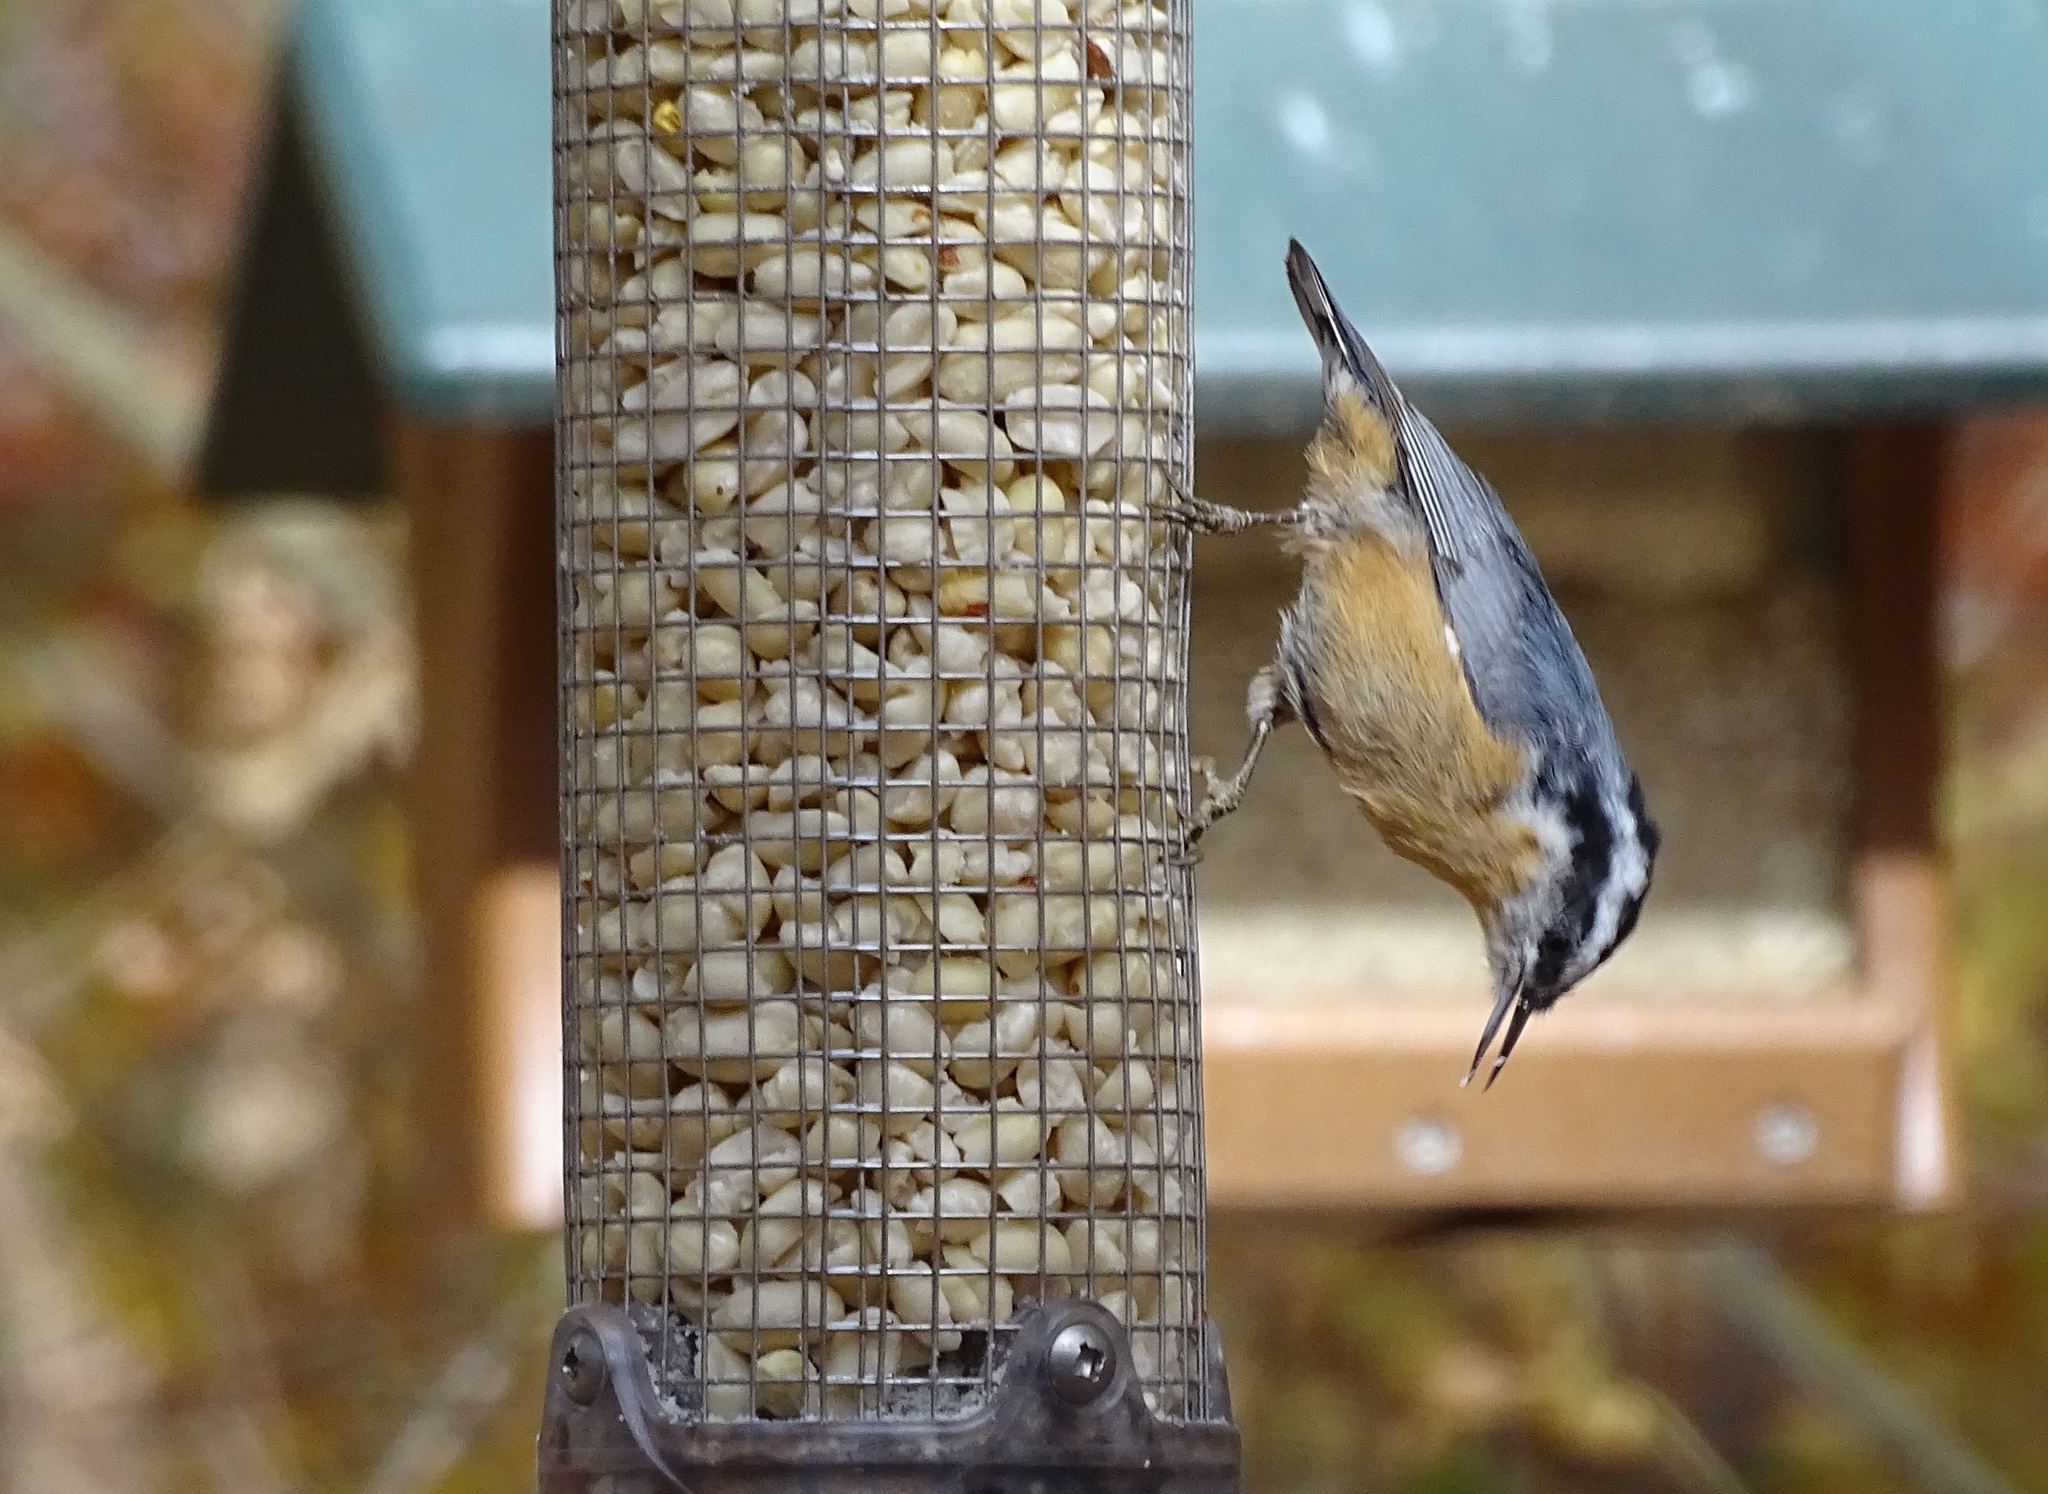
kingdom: Animalia
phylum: Chordata
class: Aves
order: Passeriformes
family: Sittidae
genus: Sitta
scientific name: Sitta canadensis
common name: Red-breasted nuthatch
